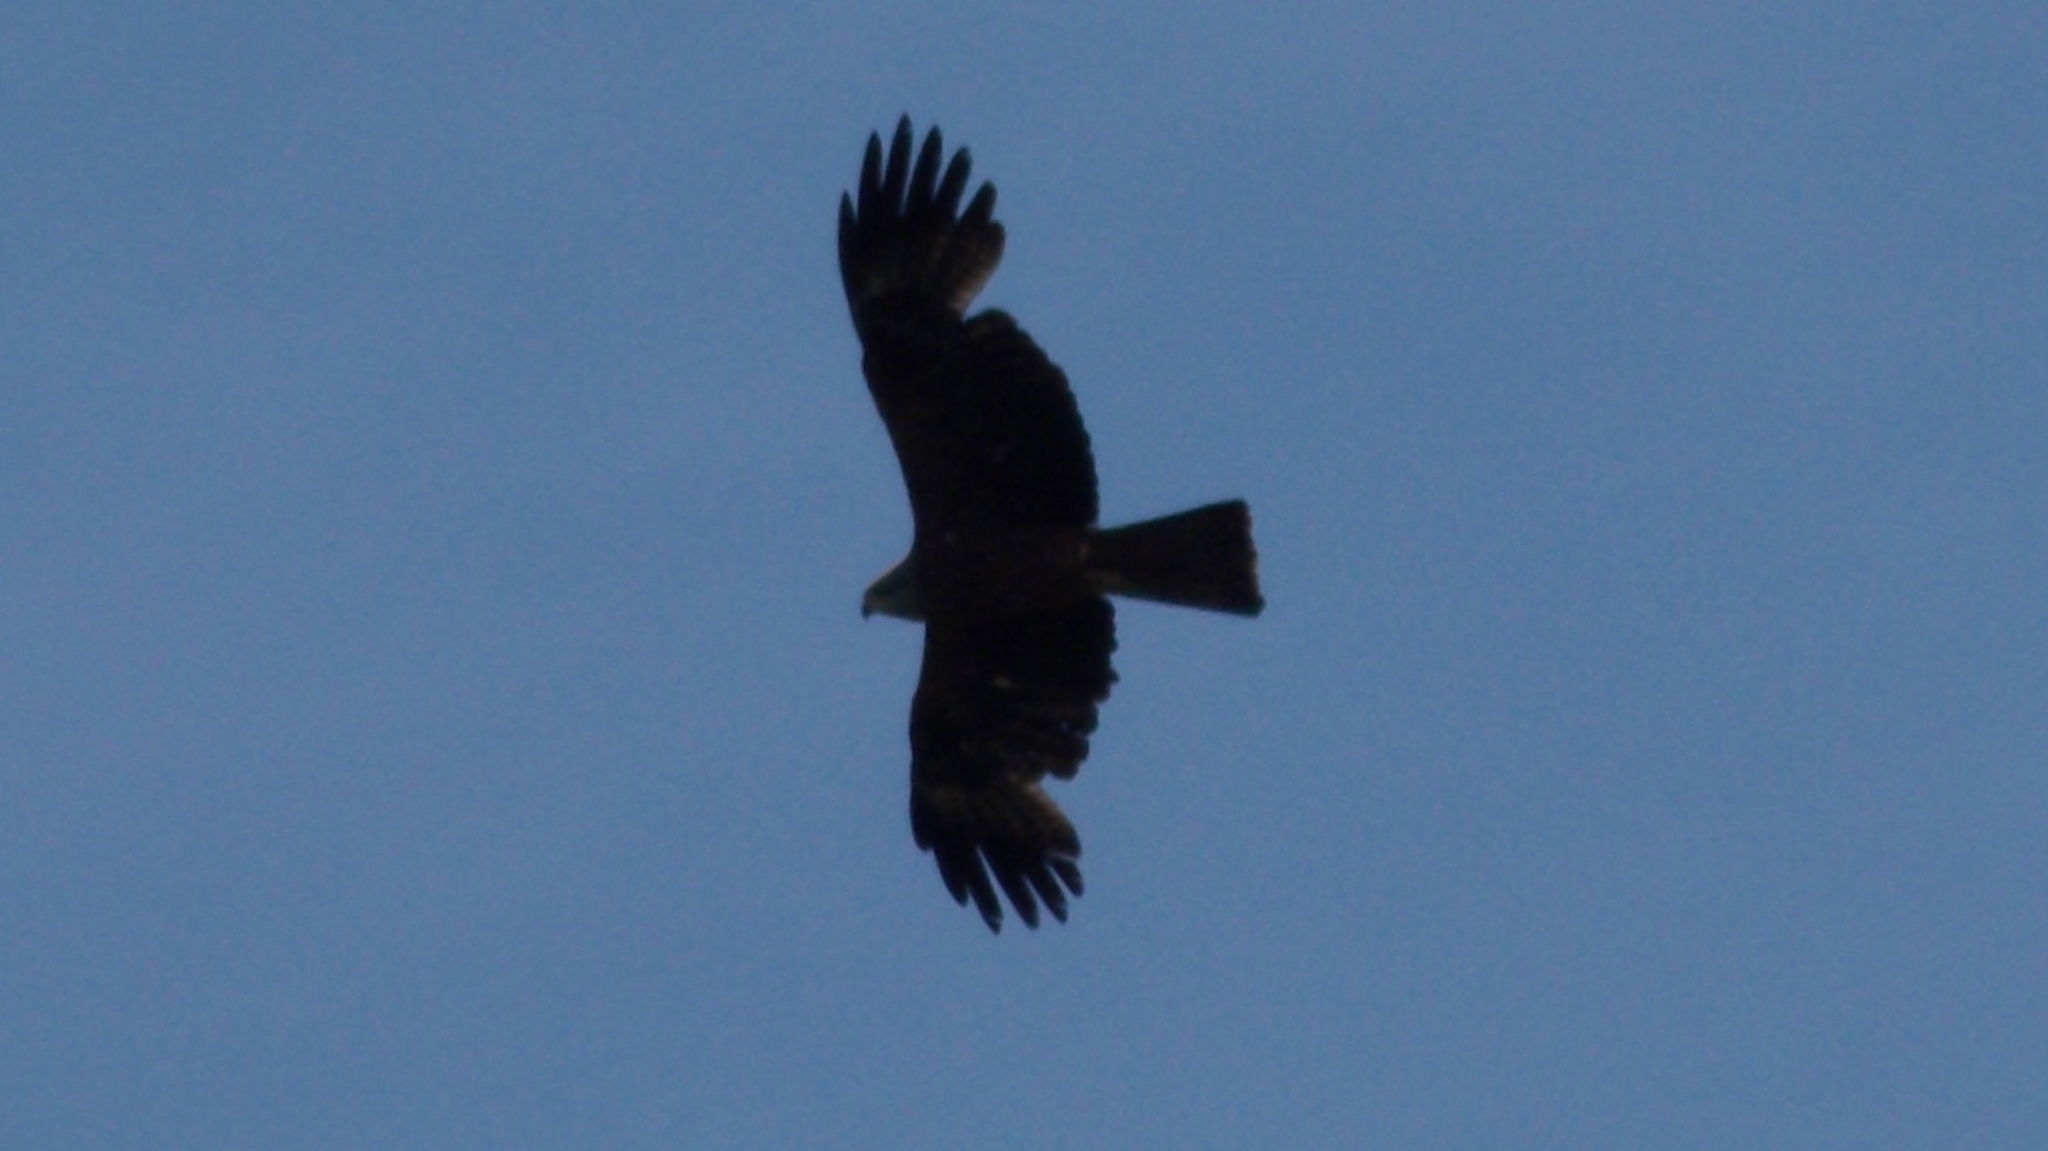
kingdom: Animalia
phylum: Chordata
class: Aves
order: Accipitriformes
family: Accipitridae
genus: Milvus
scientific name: Milvus migrans
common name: Black kite
